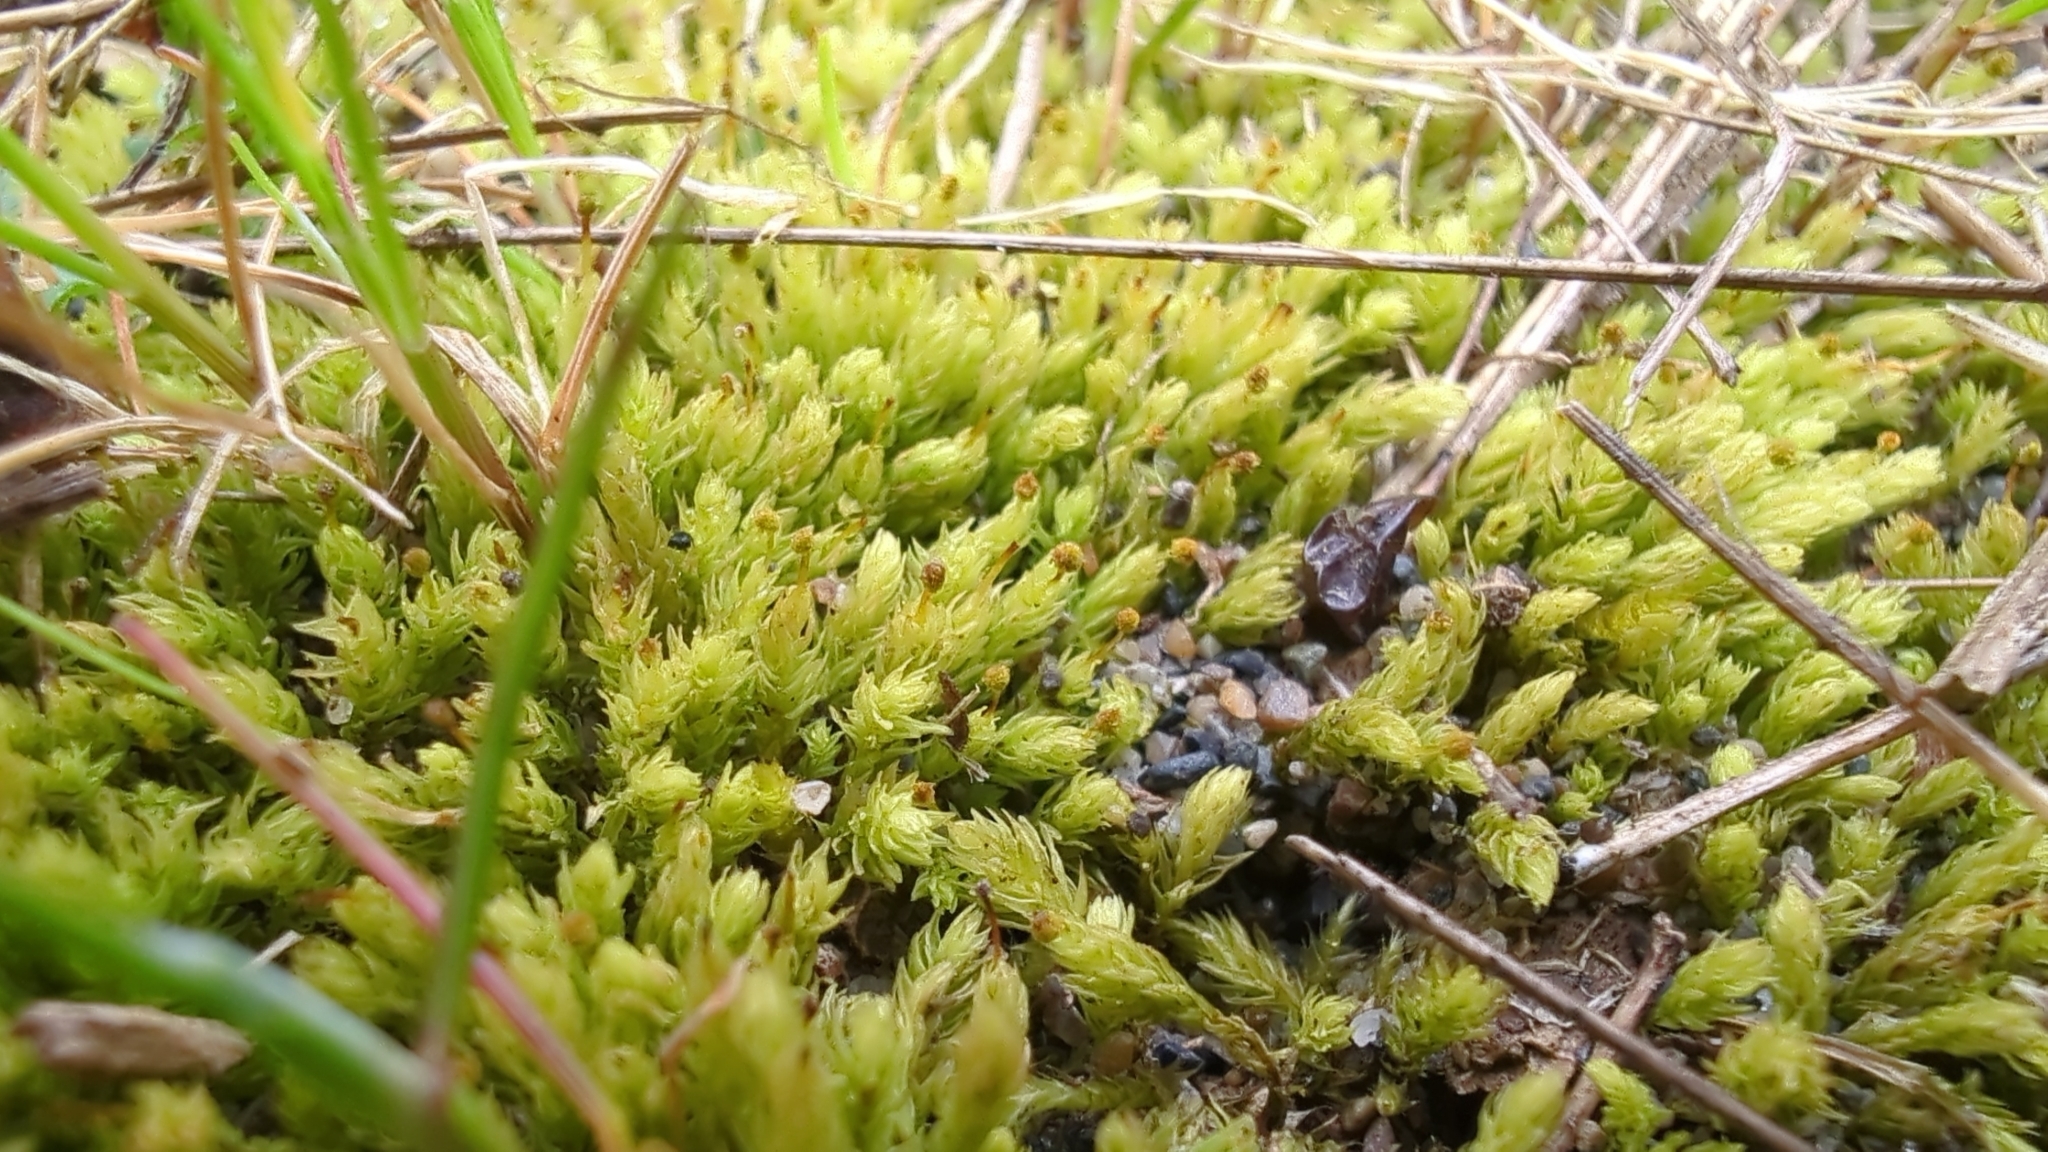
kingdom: Plantae
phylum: Bryophyta
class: Bryopsida
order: Aulacomniales
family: Aulacomniaceae
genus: Aulacomnium
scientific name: Aulacomnium androgynum
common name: Little groove moss
